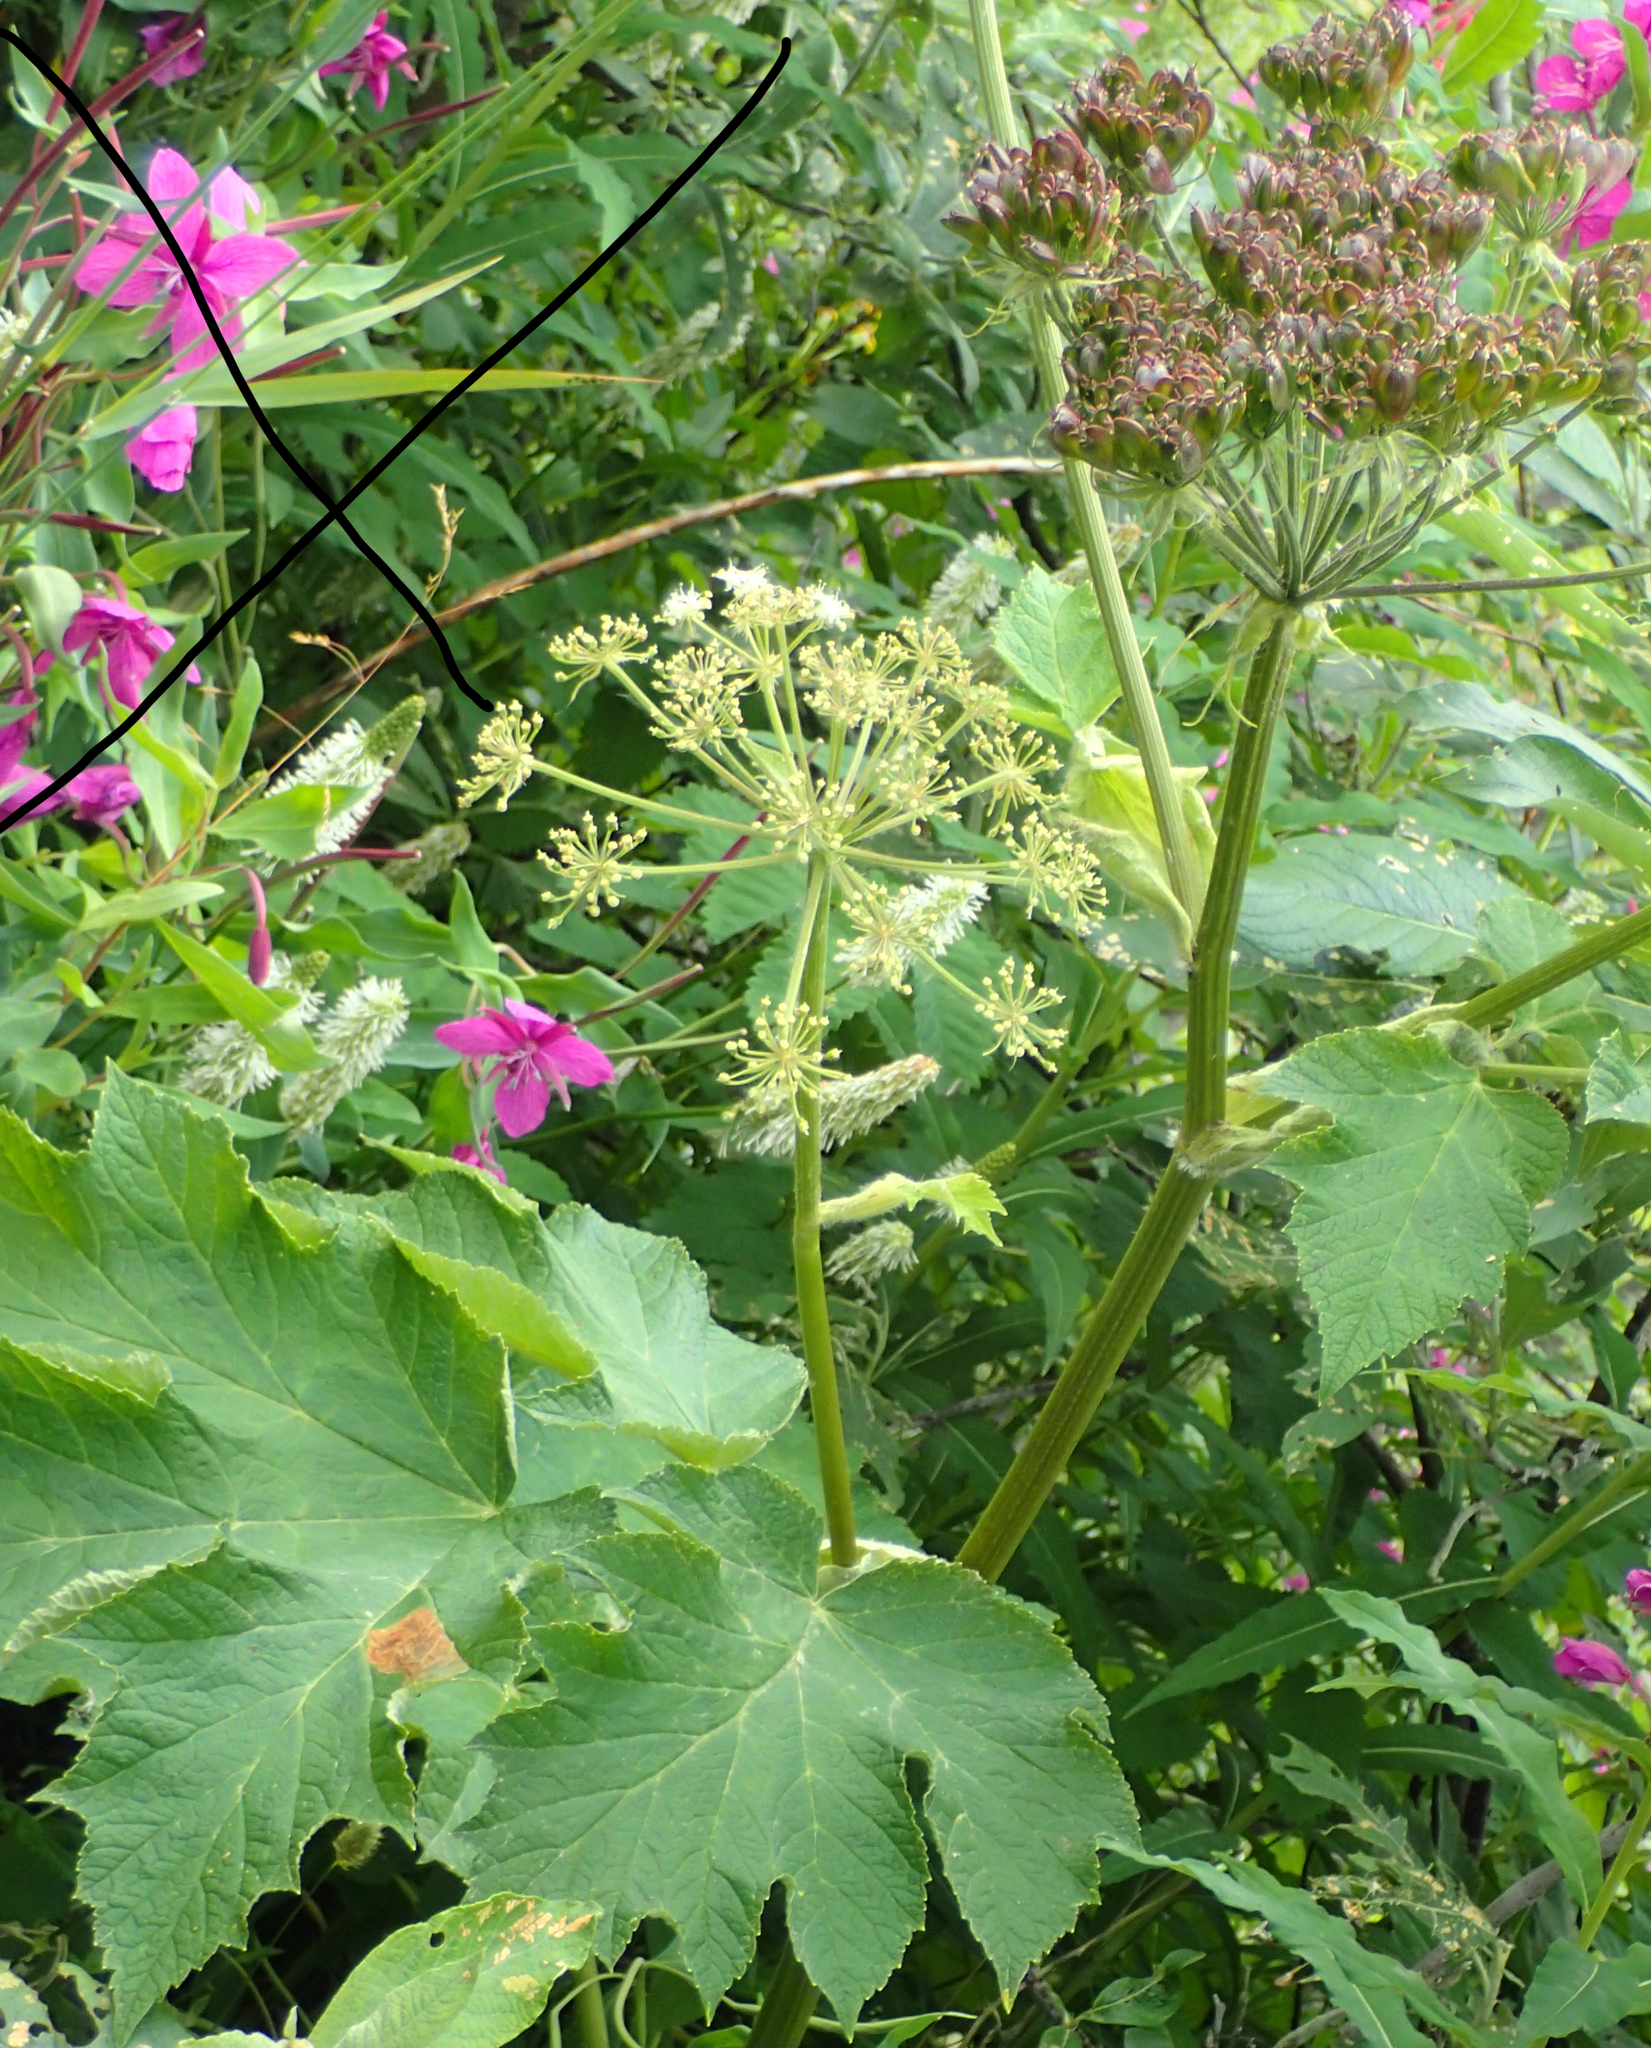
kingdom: Plantae
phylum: Tracheophyta
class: Magnoliopsida
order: Apiales
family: Apiaceae
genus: Heracleum
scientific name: Heracleum maximum
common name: American cow parsnip
